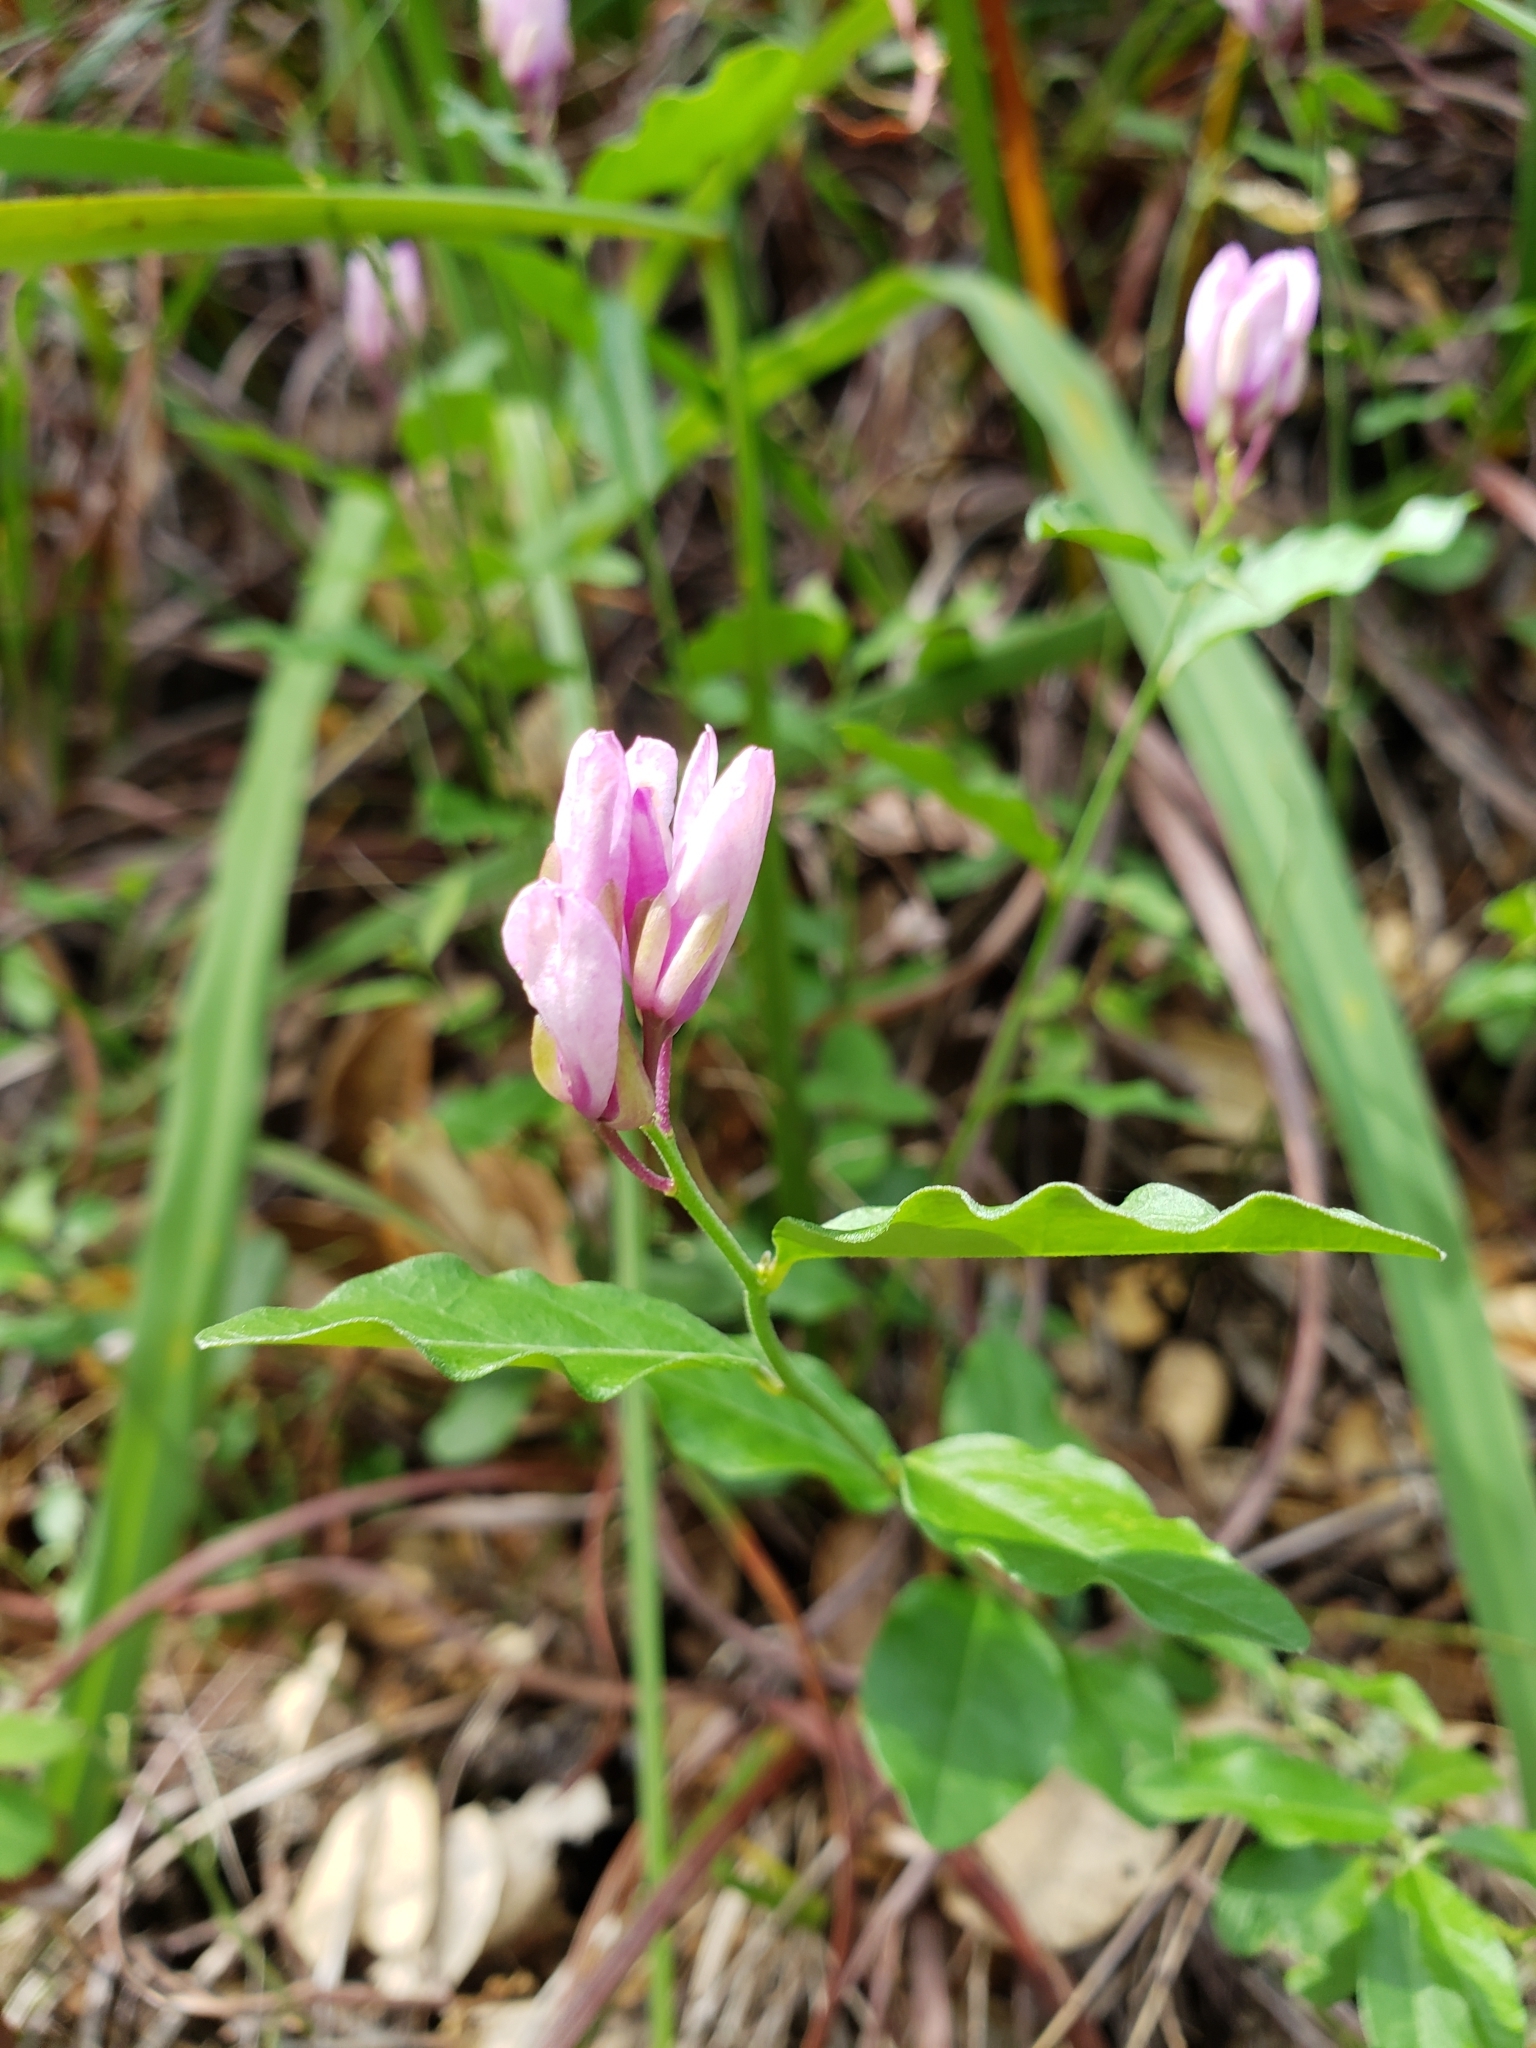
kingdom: Plantae
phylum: Tracheophyta
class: Magnoliopsida
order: Fabales
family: Polygalaceae
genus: Rhinotropis
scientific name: Rhinotropis californica
